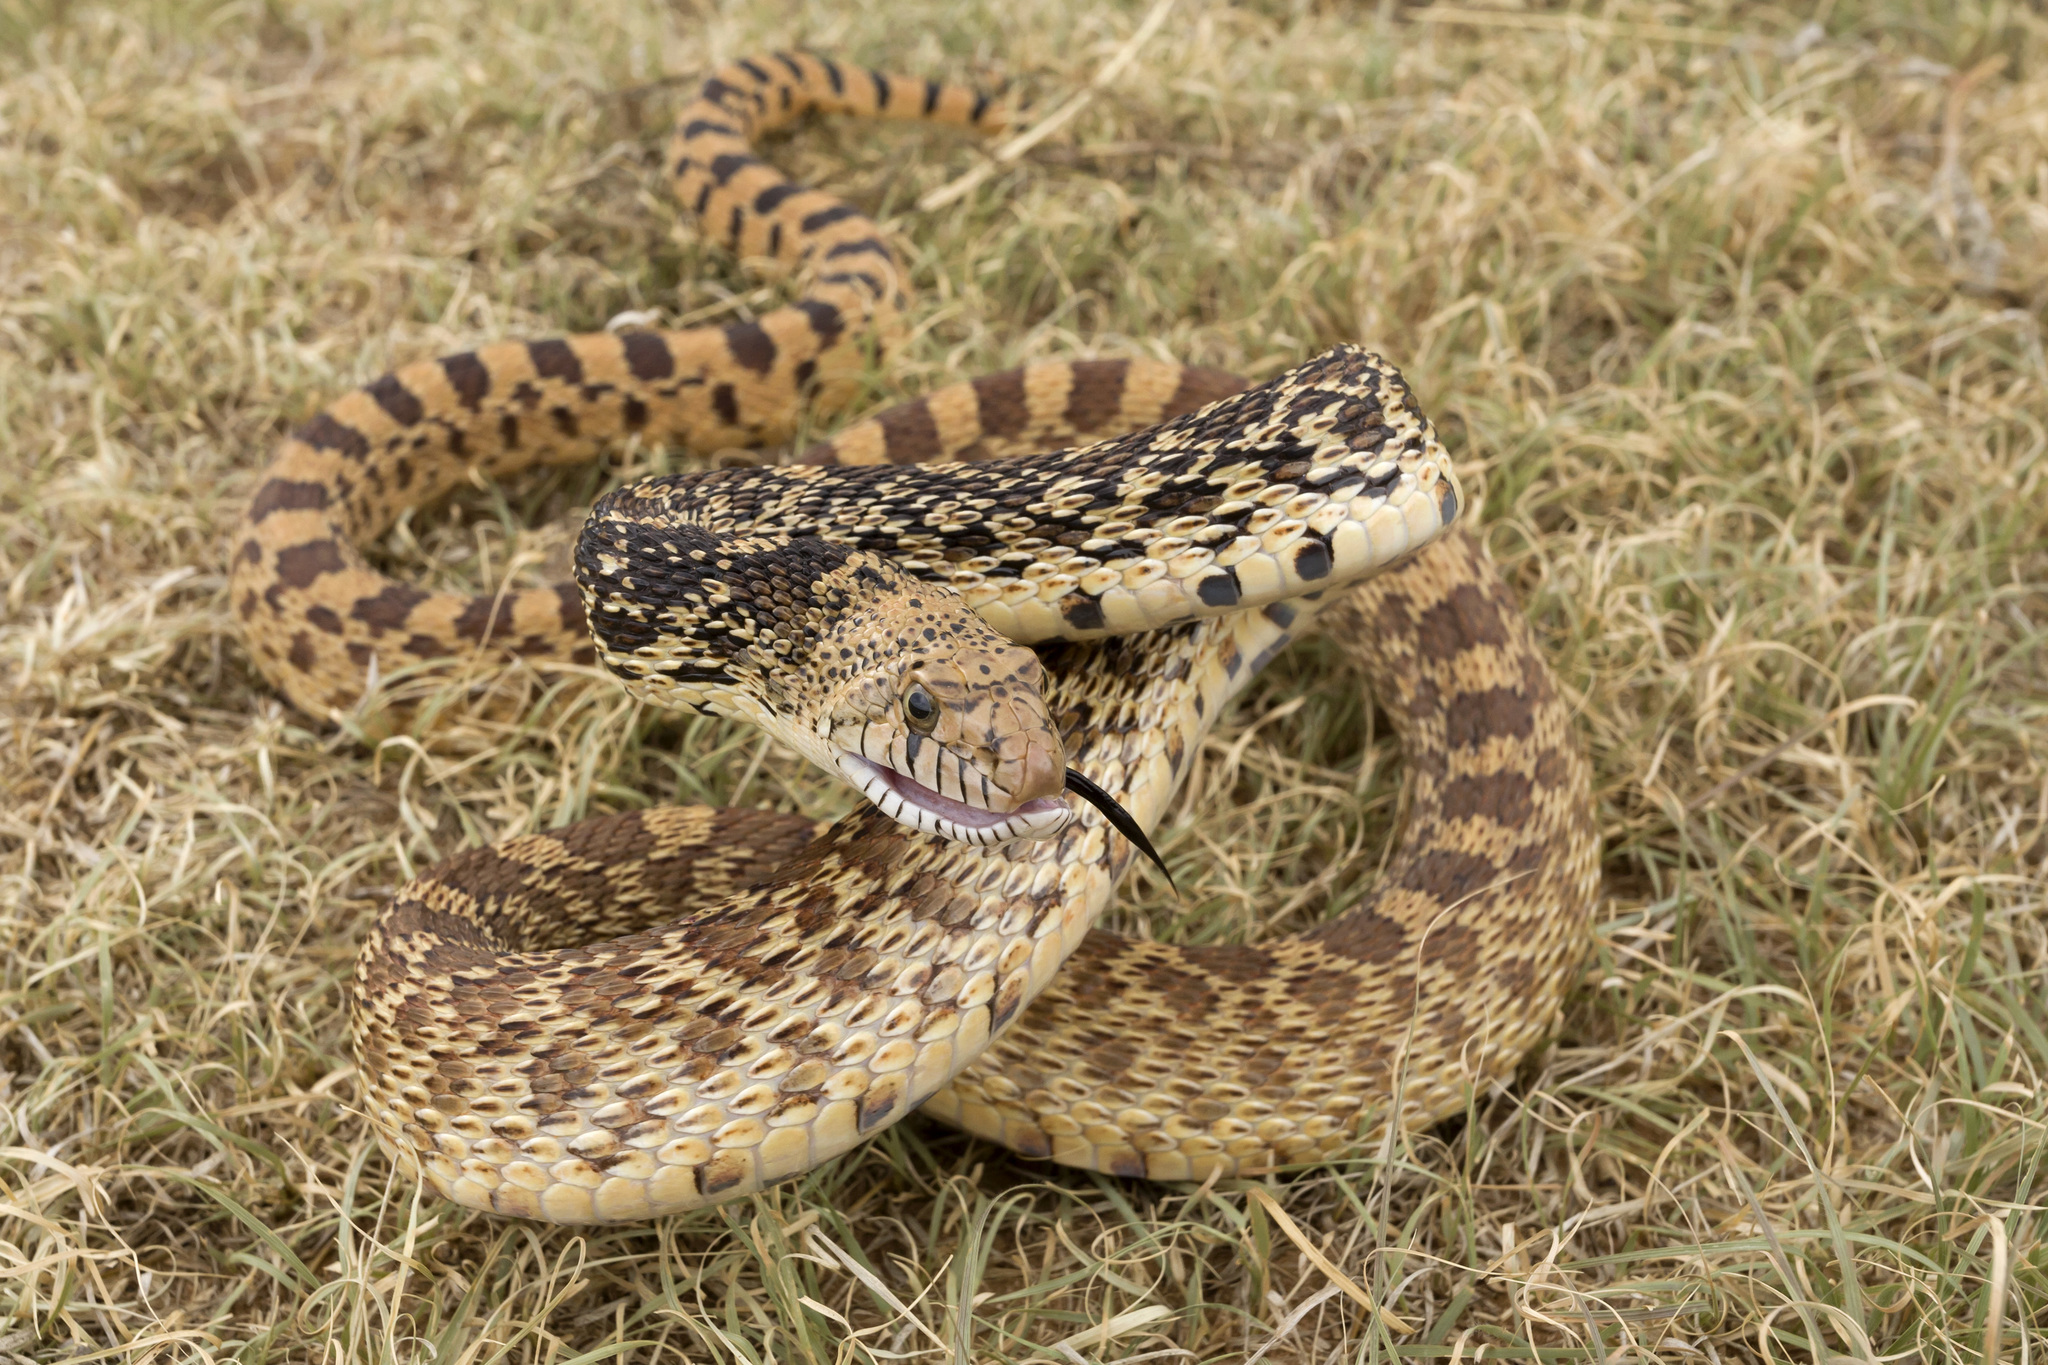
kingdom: Animalia
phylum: Chordata
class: Squamata
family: Colubridae
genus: Pituophis
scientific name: Pituophis catenifer
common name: Gopher snake
